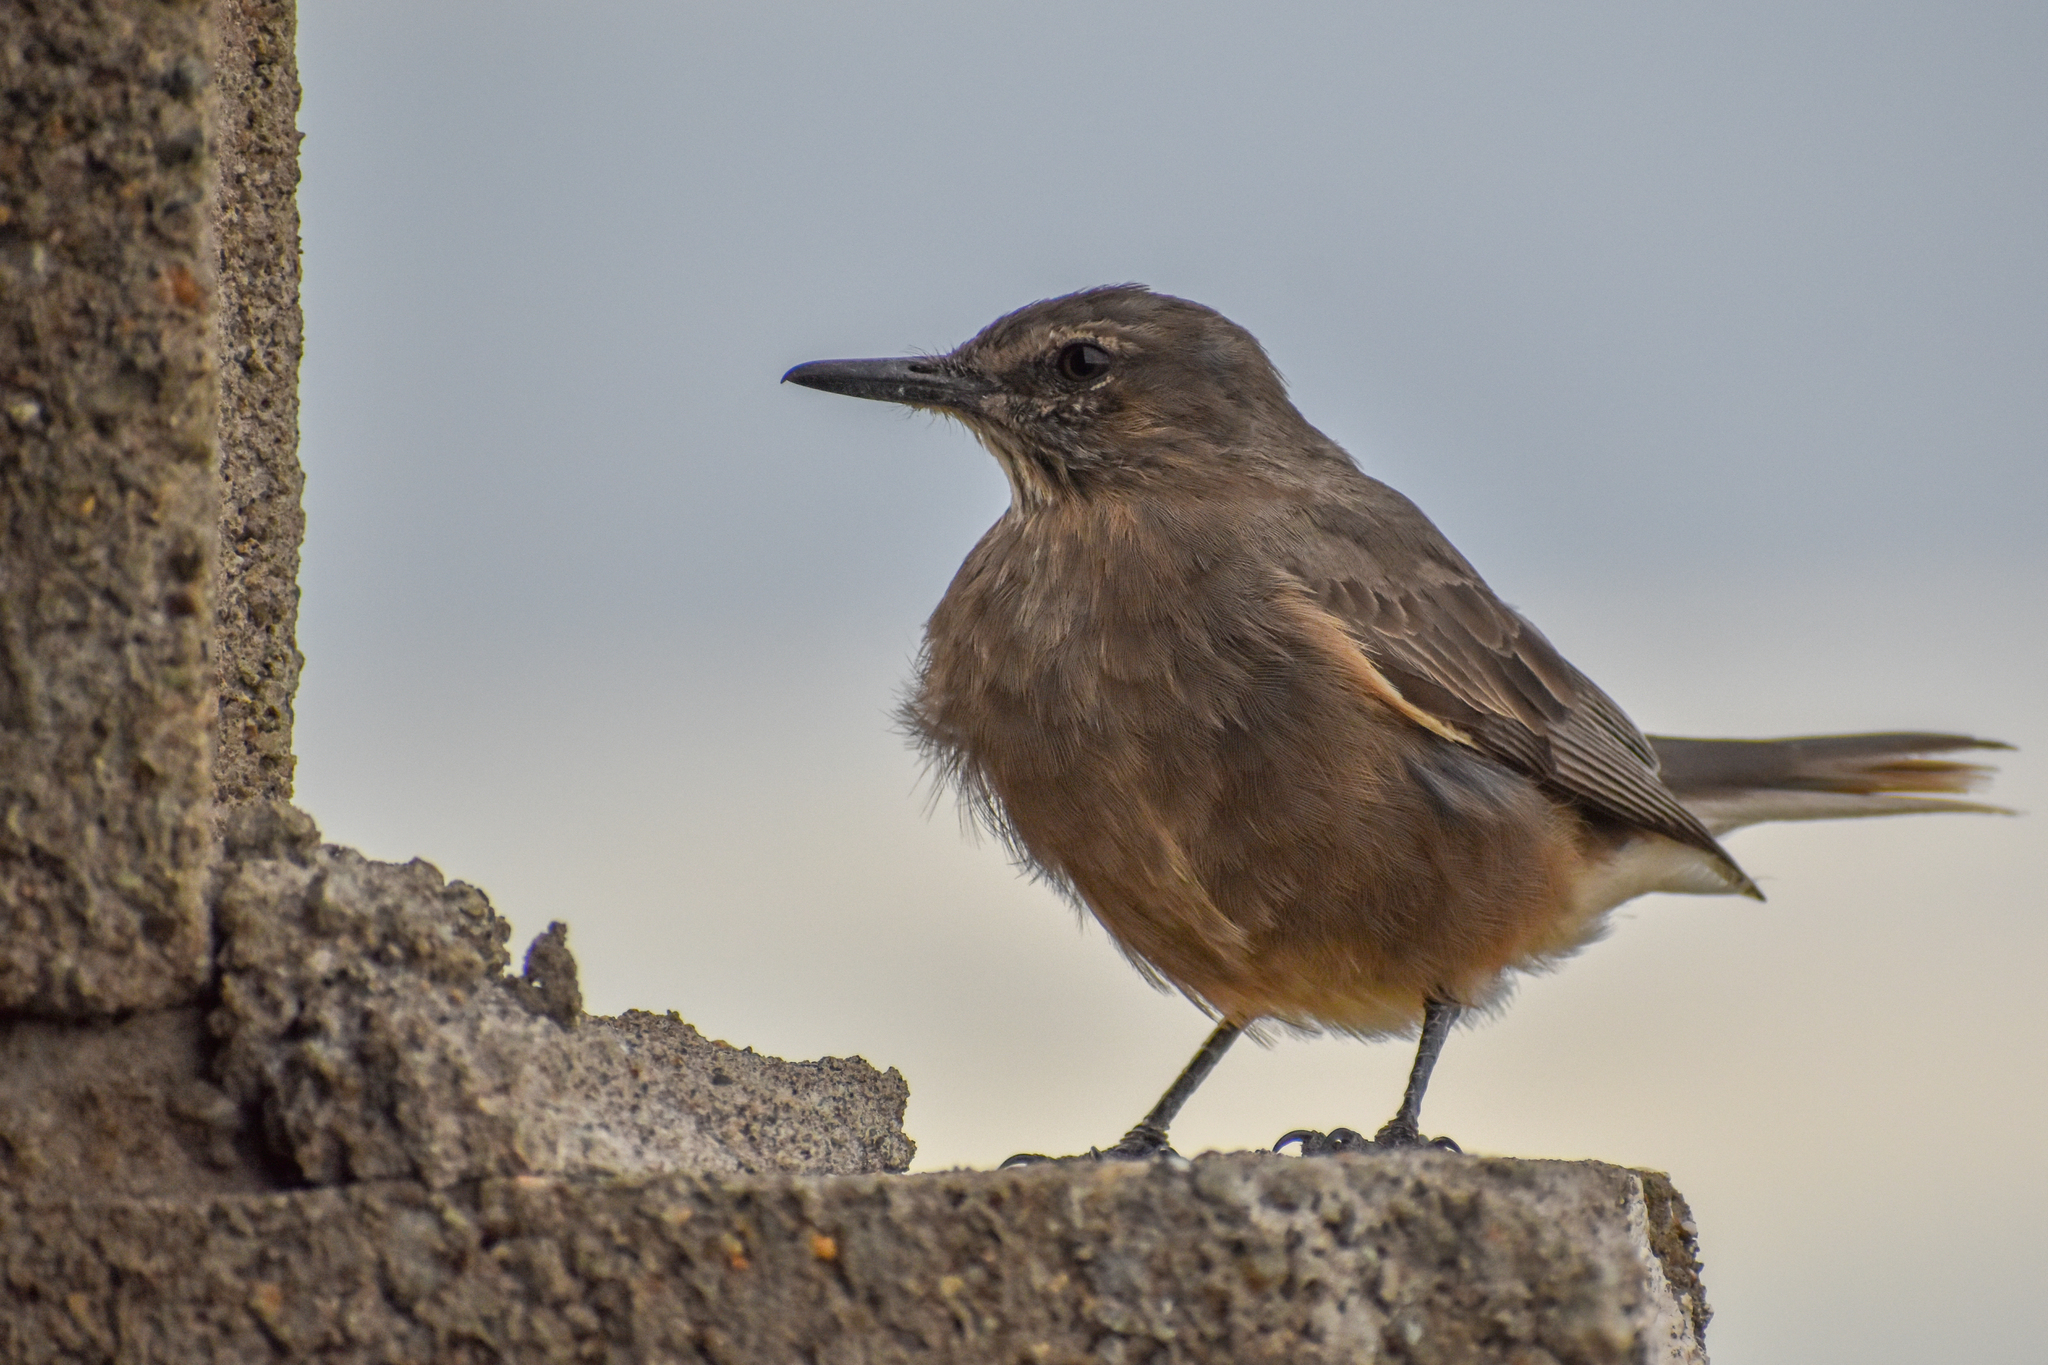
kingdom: Animalia
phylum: Chordata
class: Aves
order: Passeriformes
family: Tyrannidae
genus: Agriornis
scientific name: Agriornis montanus
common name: Black-billed shrike-tyrant
